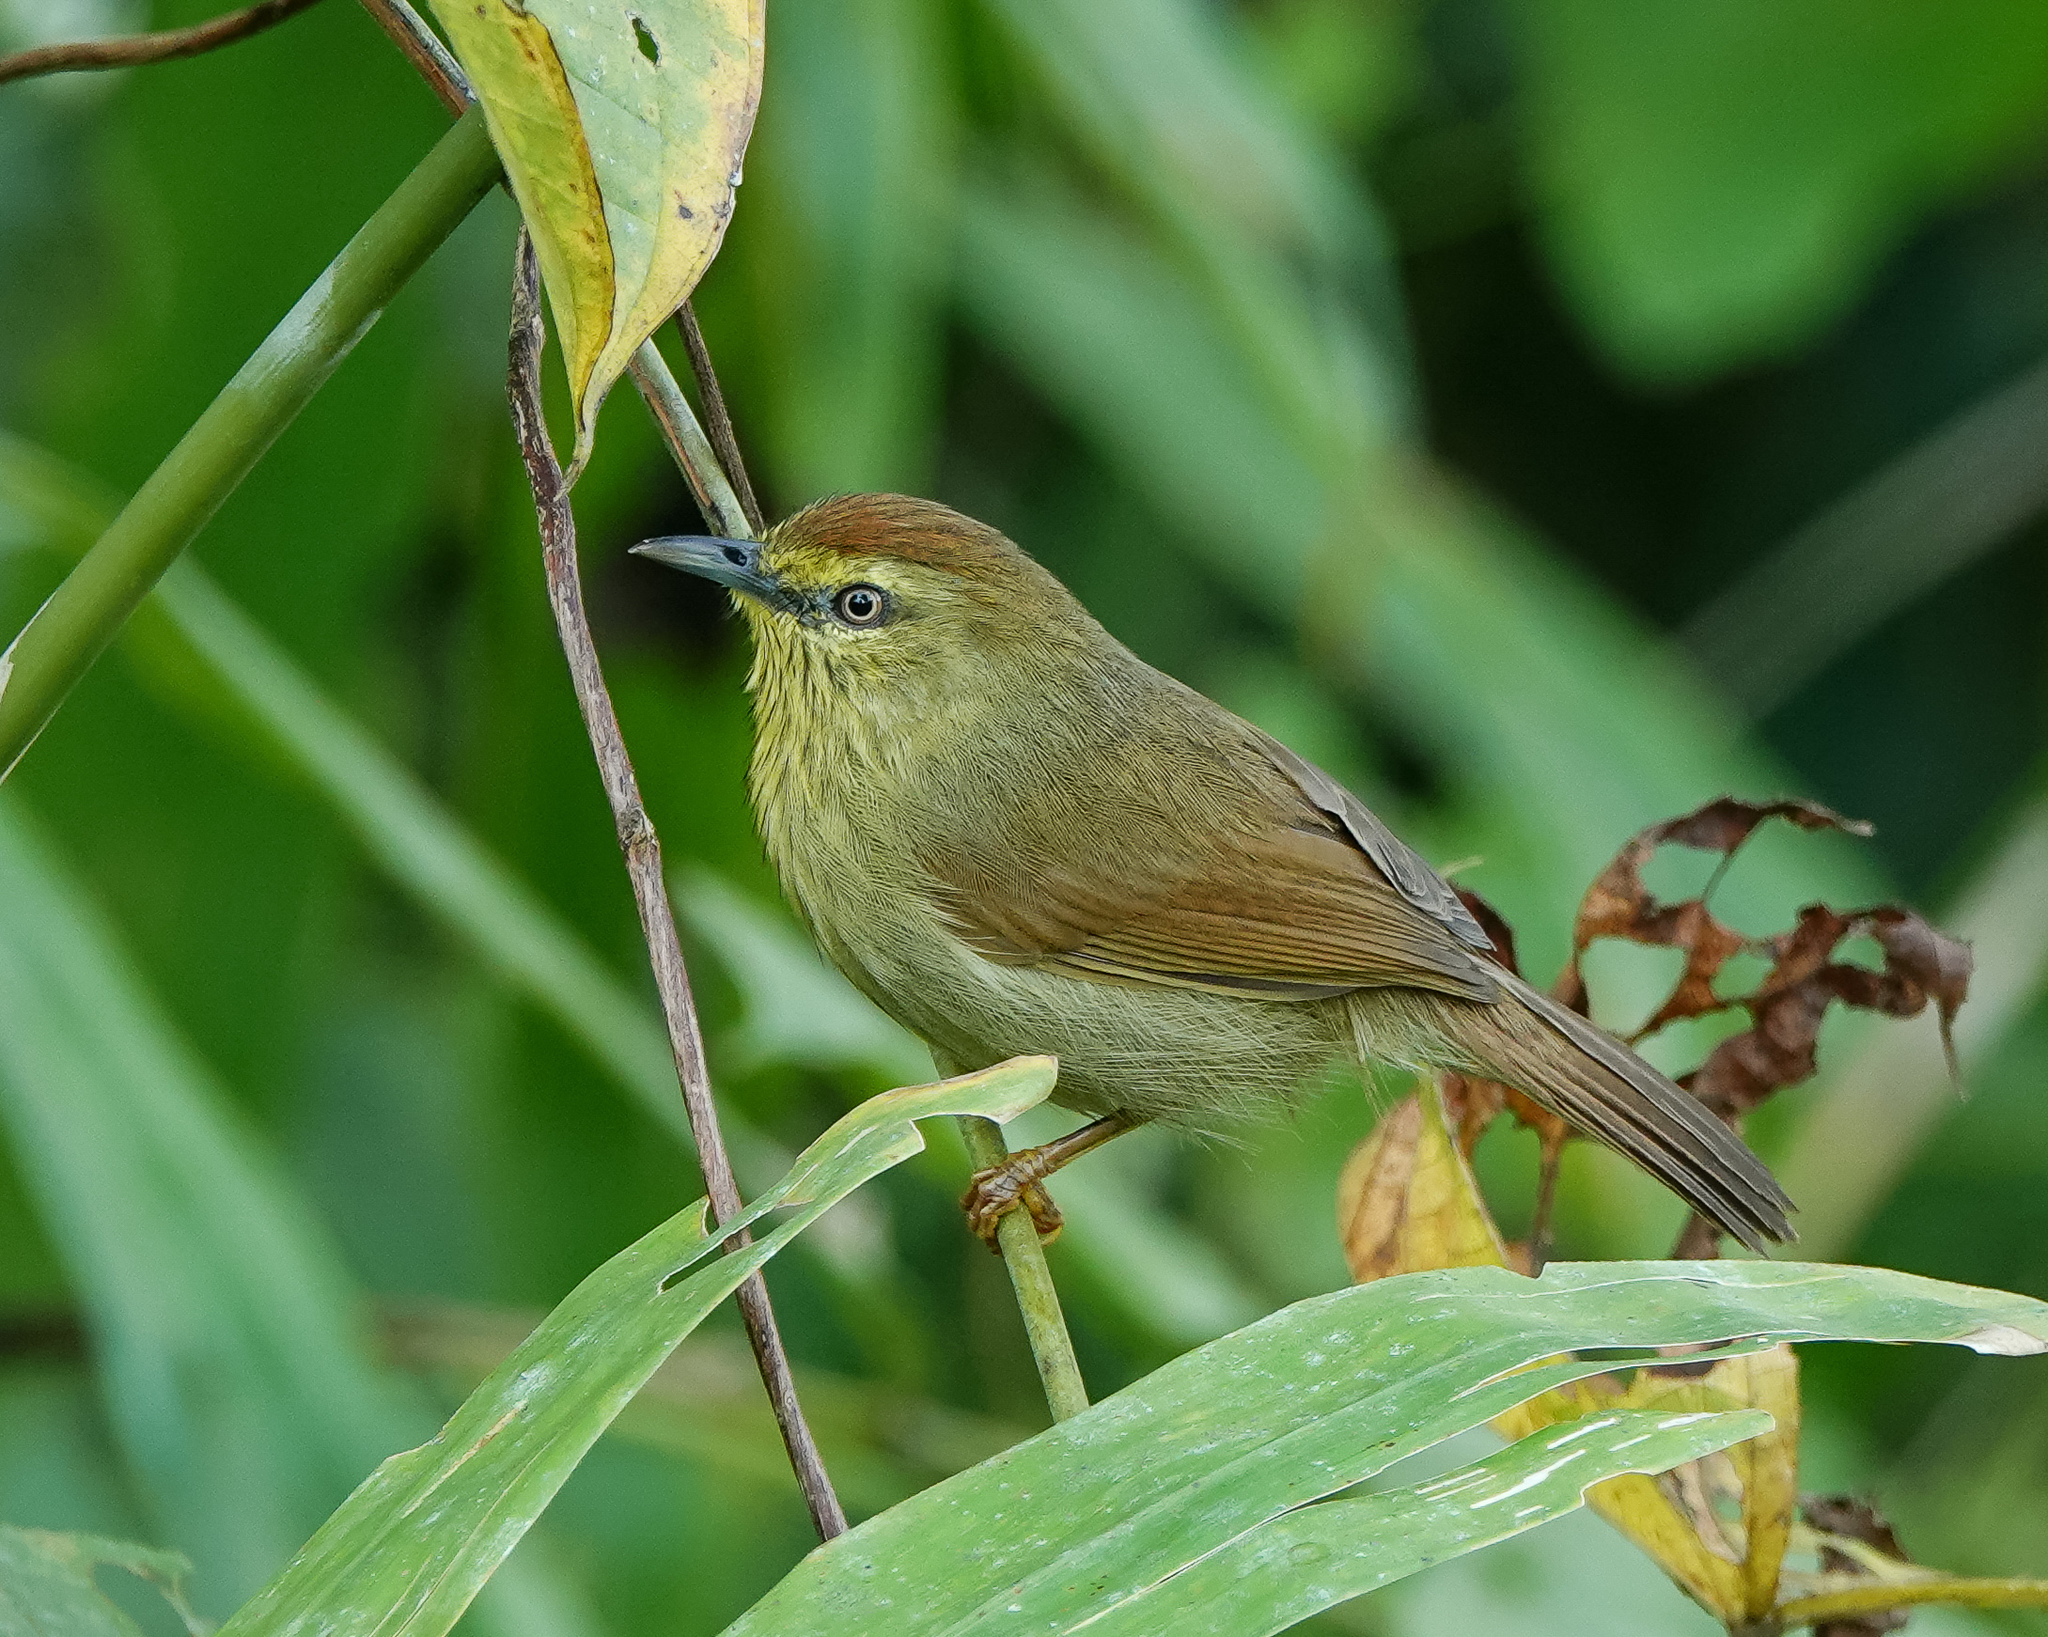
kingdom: Animalia
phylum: Chordata
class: Aves
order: Passeriformes
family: Timaliidae
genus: Macronus
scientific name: Macronus gularis
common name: Striped tit-babbler
